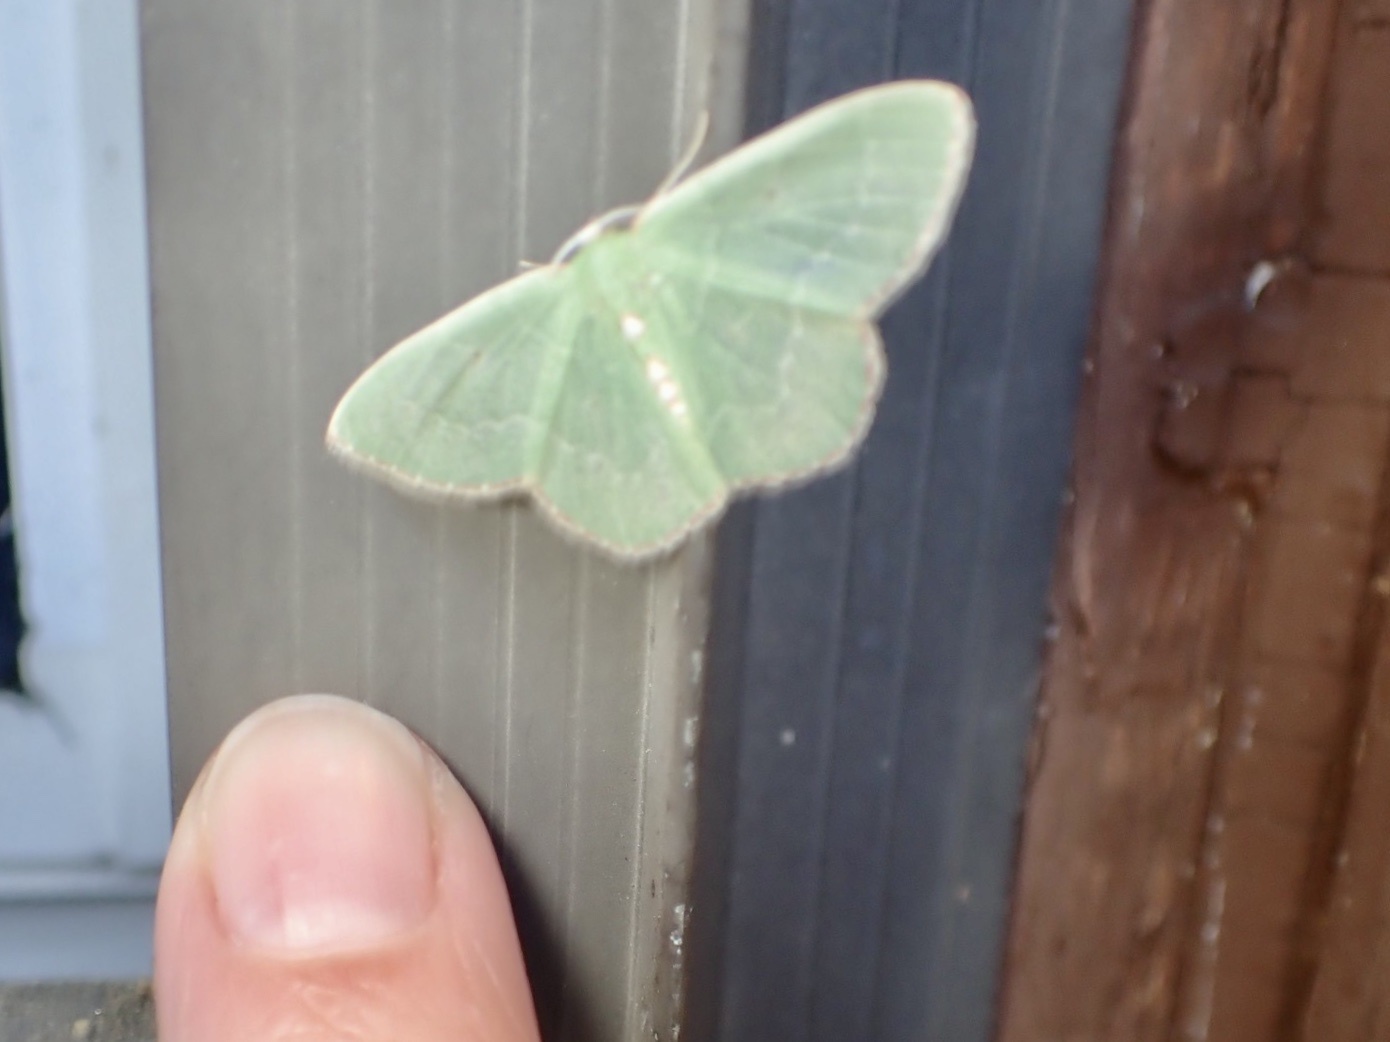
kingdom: Animalia
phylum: Arthropoda
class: Insecta
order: Lepidoptera
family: Geometridae
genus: Nemoria
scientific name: Nemoria lixaria
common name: Red-bordered emerald
